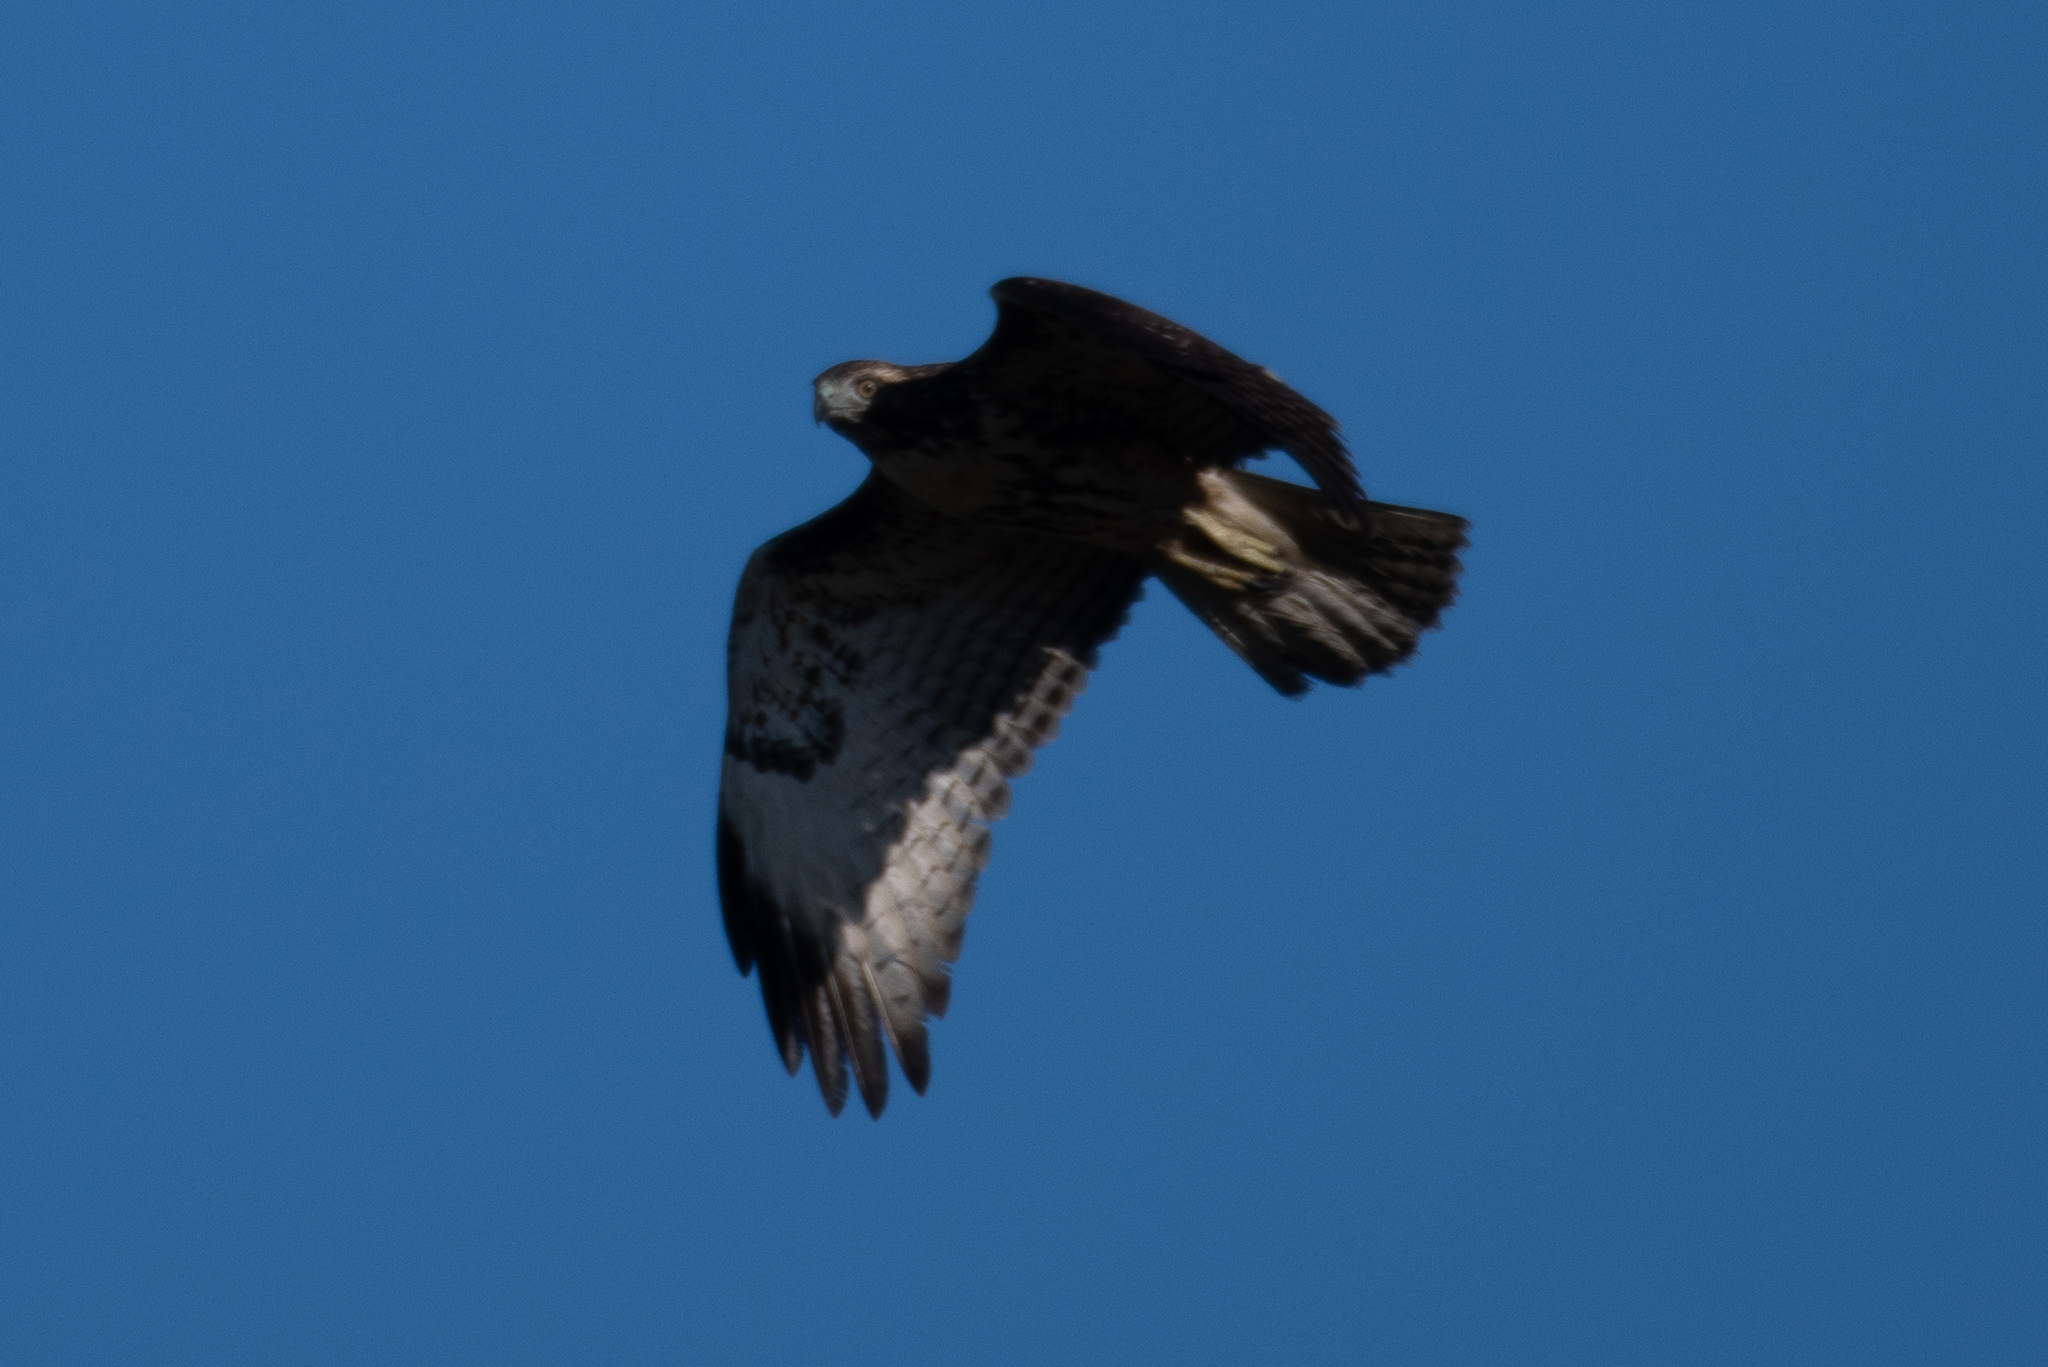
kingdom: Animalia
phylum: Chordata
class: Aves
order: Accipitriformes
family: Accipitridae
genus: Buteo
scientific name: Buteo jamaicensis
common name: Red-tailed hawk
